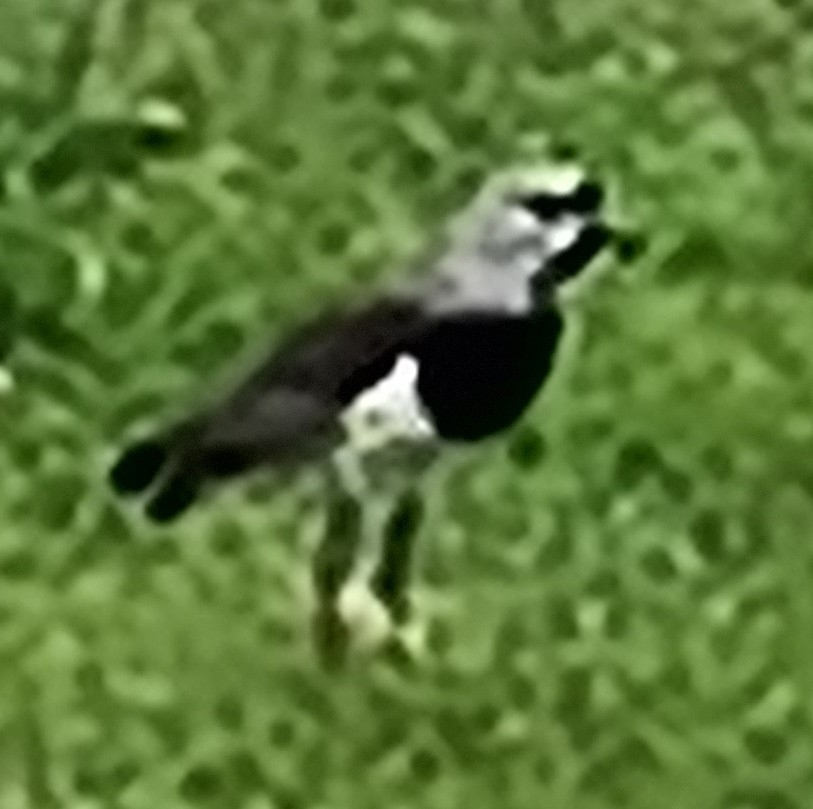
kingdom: Animalia
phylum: Chordata
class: Aves
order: Charadriiformes
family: Charadriidae
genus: Vanellus
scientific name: Vanellus chilensis
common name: Southern lapwing
